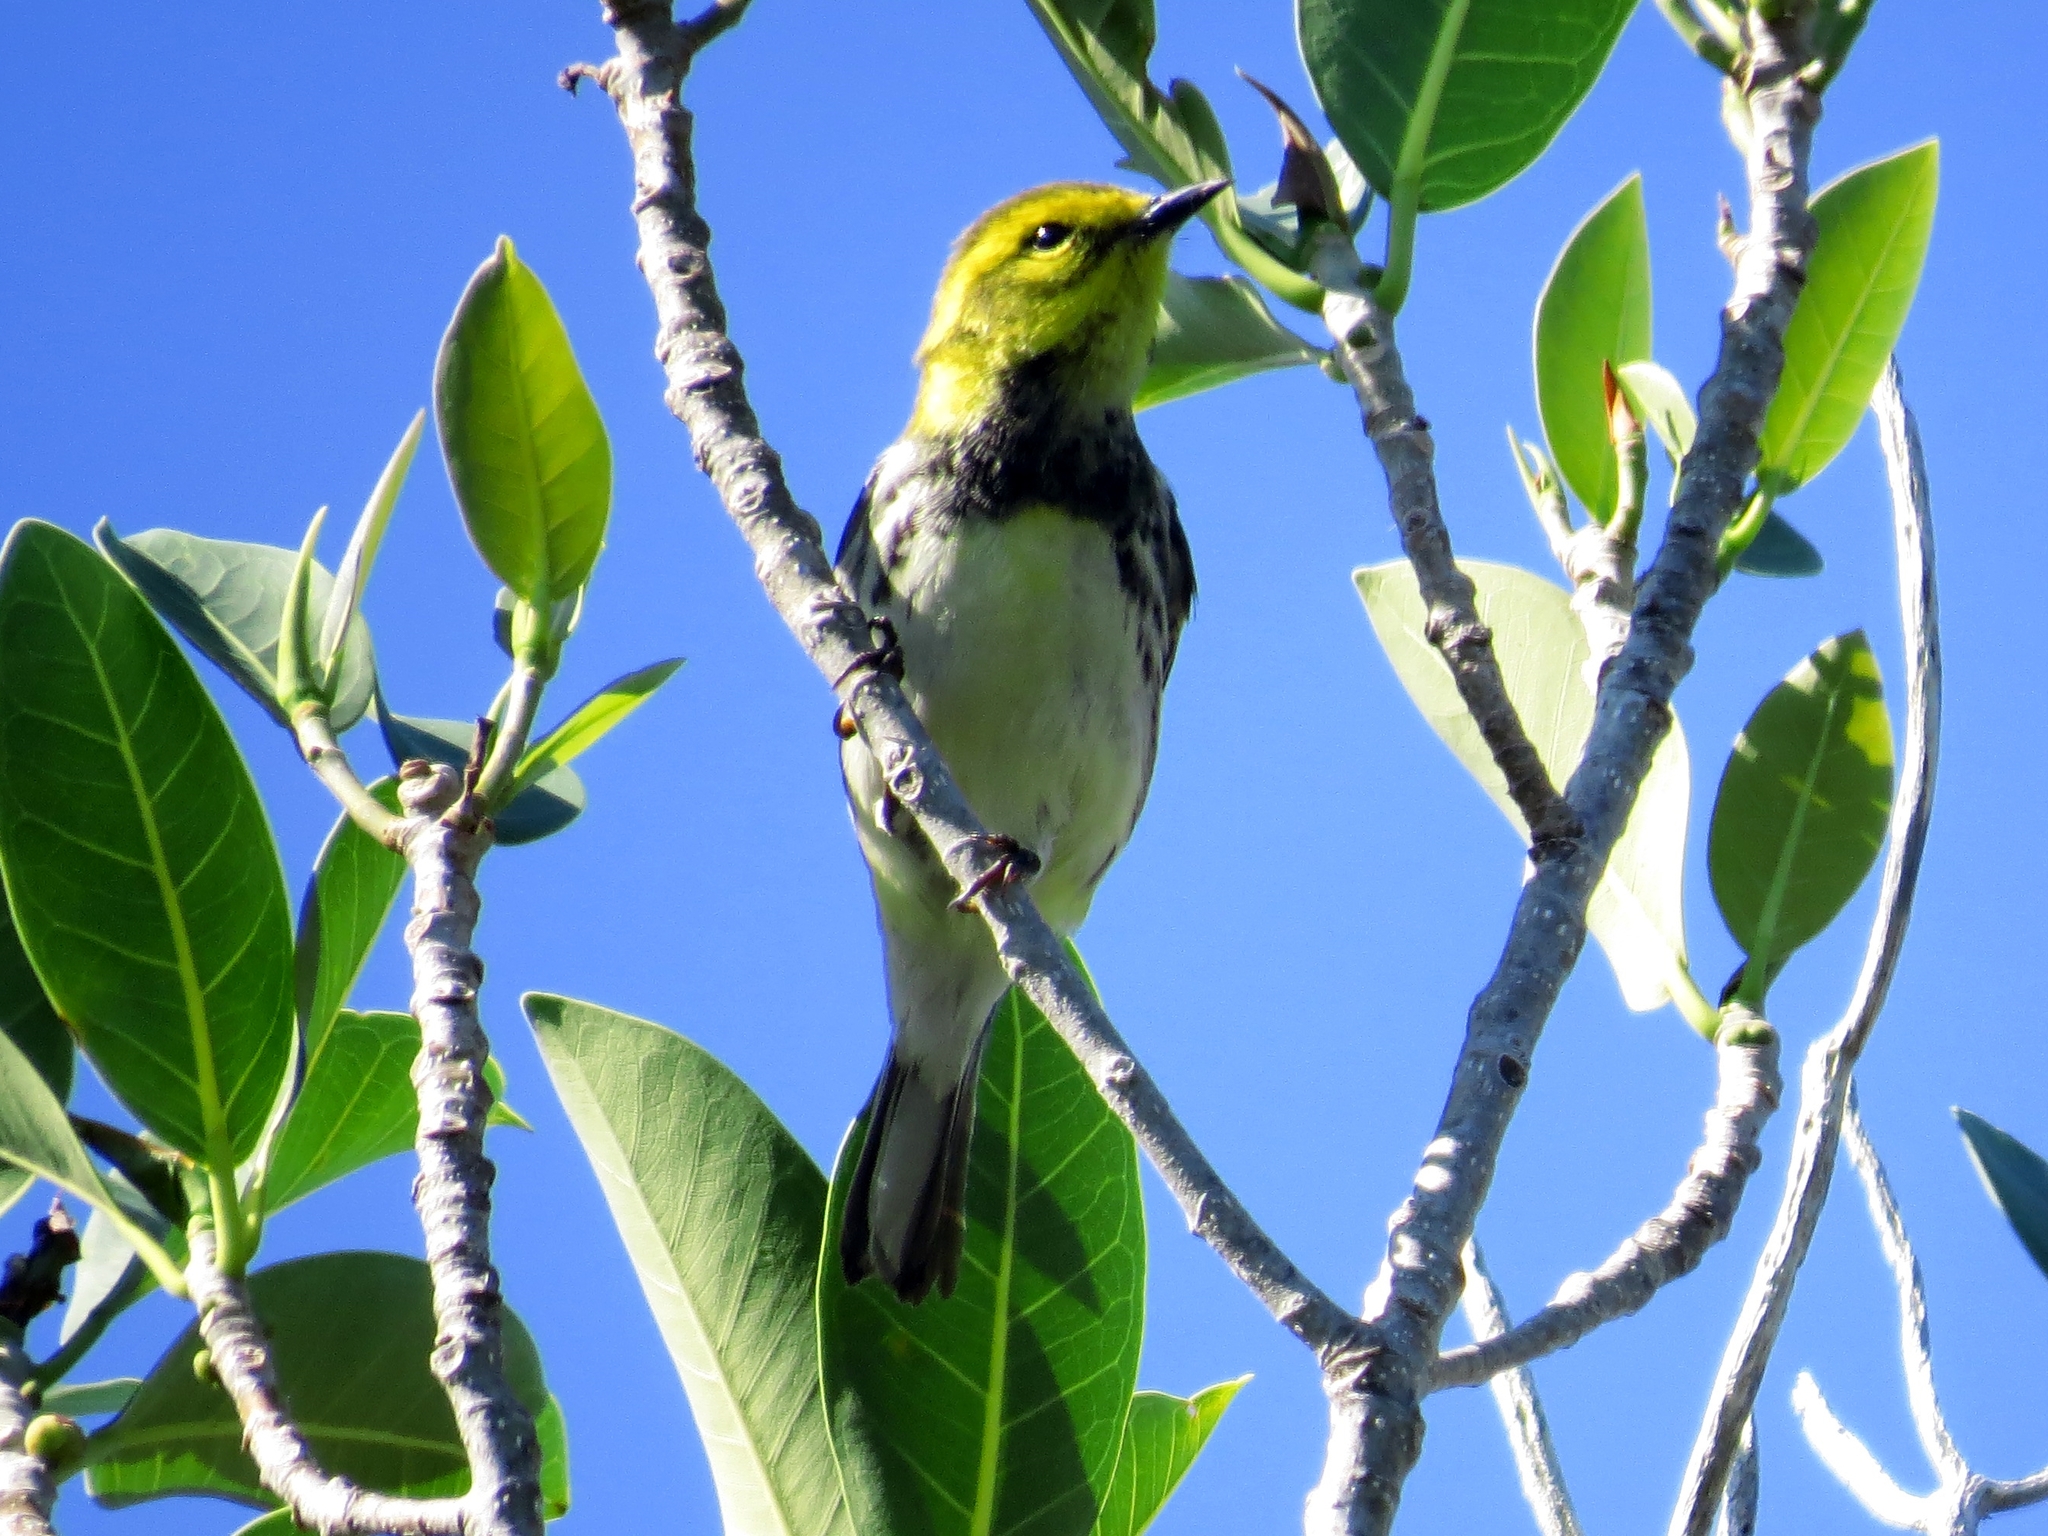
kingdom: Animalia
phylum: Chordata
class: Aves
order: Passeriformes
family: Parulidae
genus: Setophaga
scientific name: Setophaga virens
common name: Black-throated green warbler
